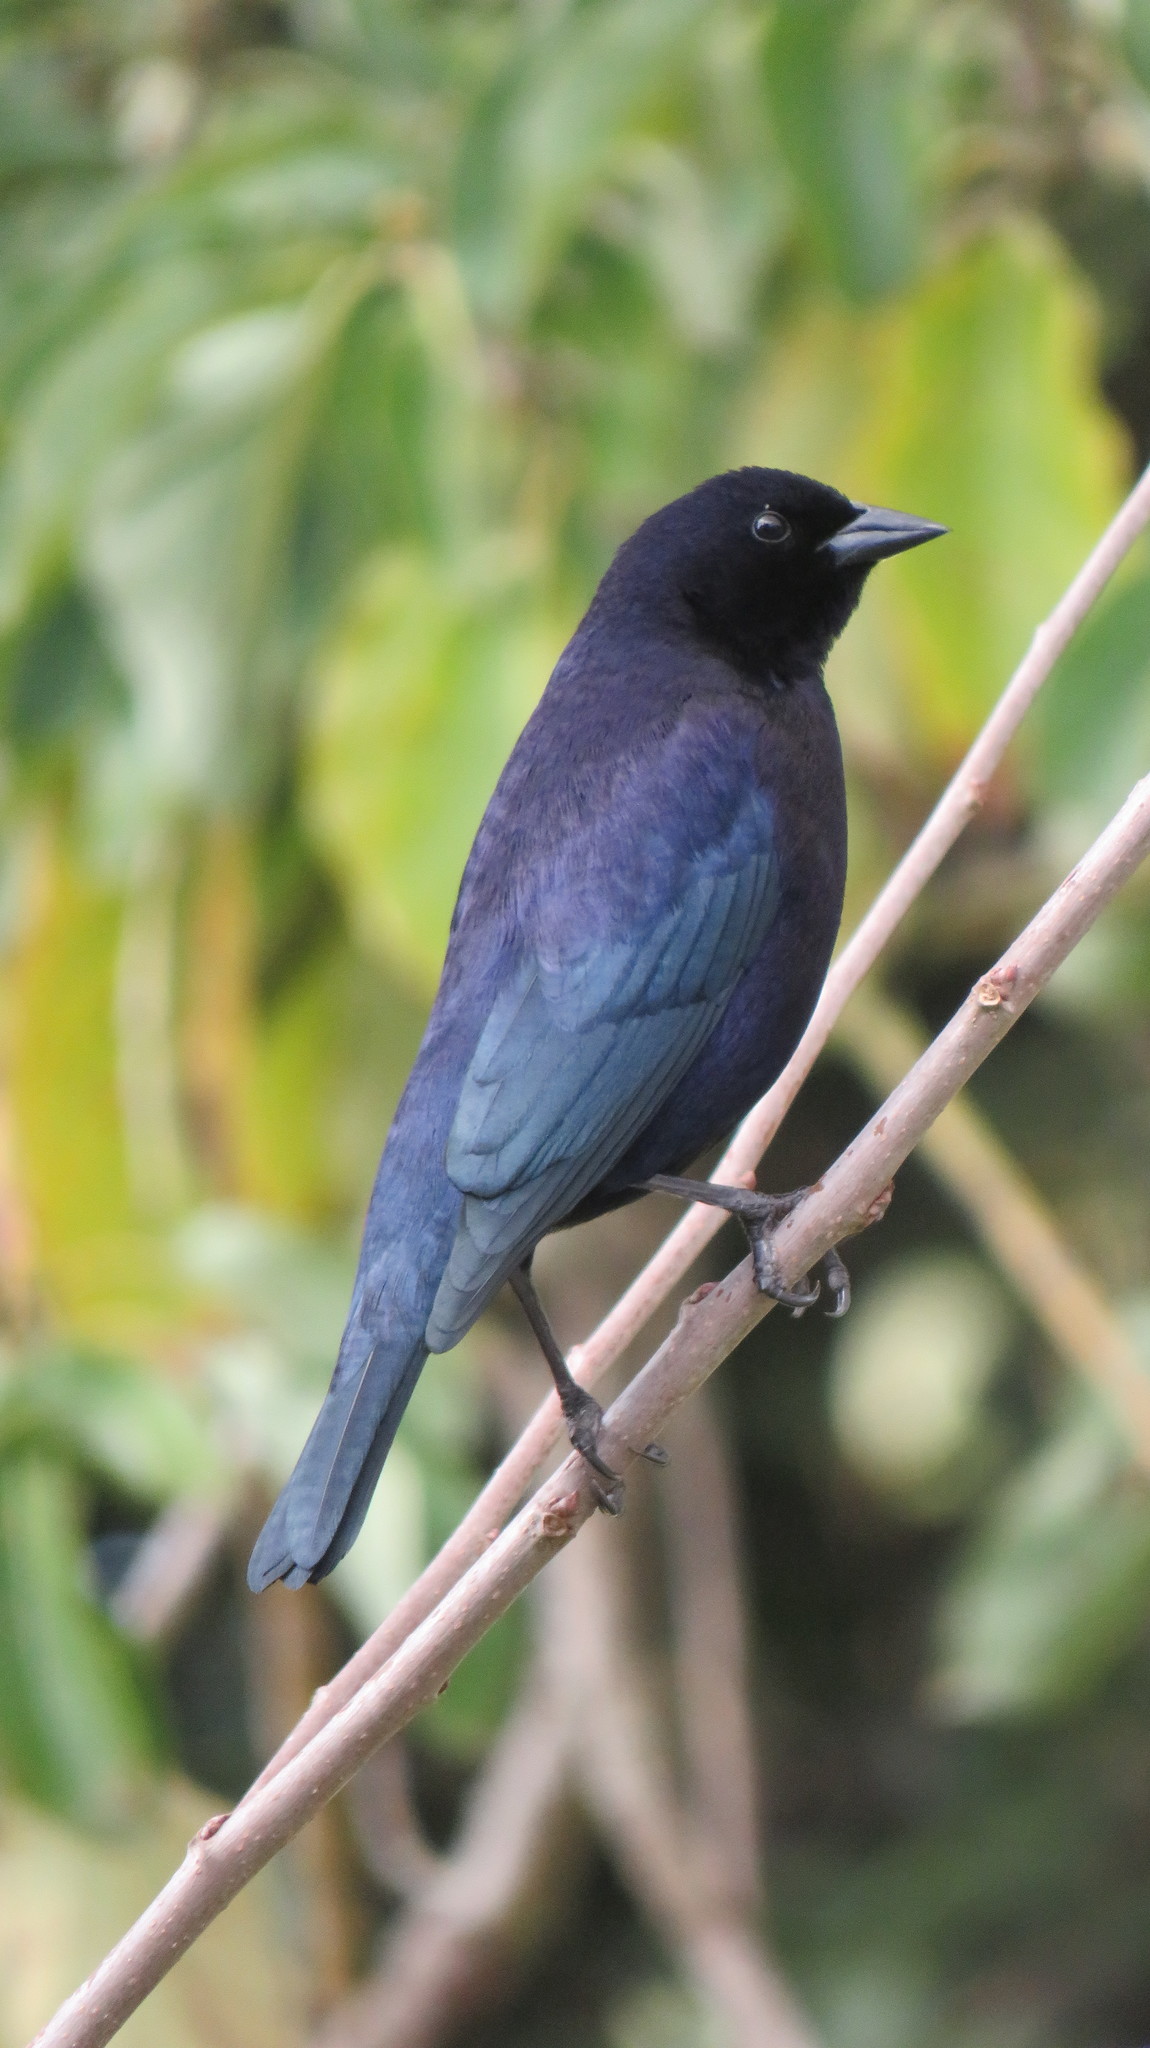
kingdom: Animalia
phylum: Chordata
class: Aves
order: Passeriformes
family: Icteridae
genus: Molothrus
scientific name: Molothrus bonariensis
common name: Shiny cowbird
